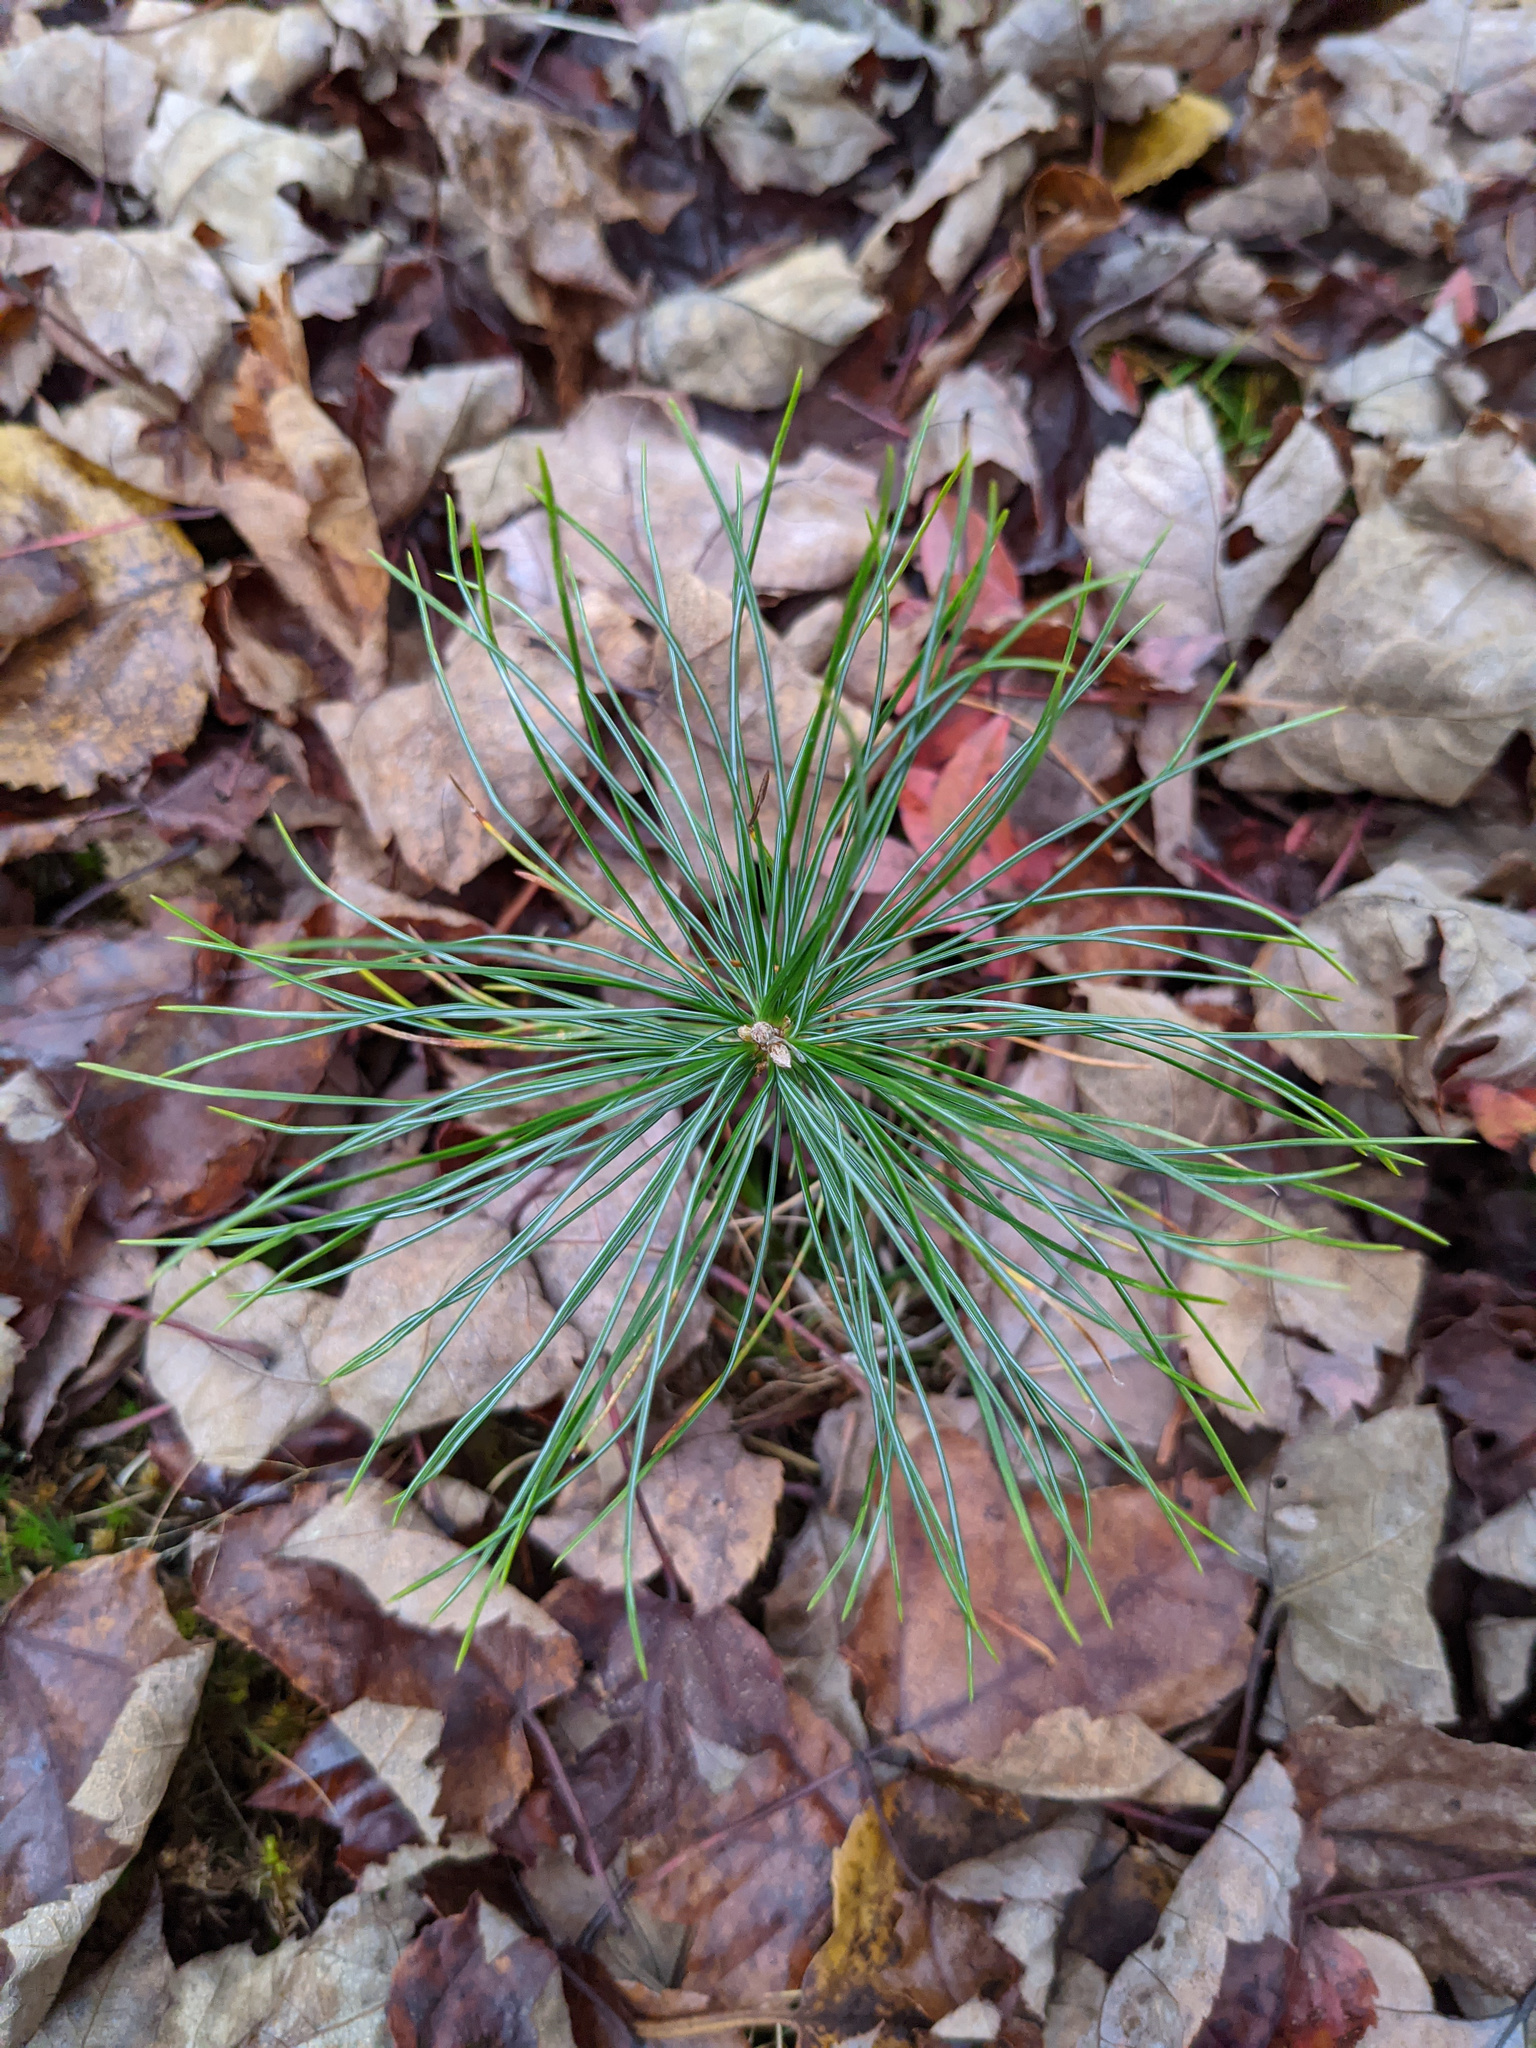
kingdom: Plantae
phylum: Tracheophyta
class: Pinopsida
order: Pinales
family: Pinaceae
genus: Pinus
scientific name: Pinus strobus
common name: Weymouth pine
